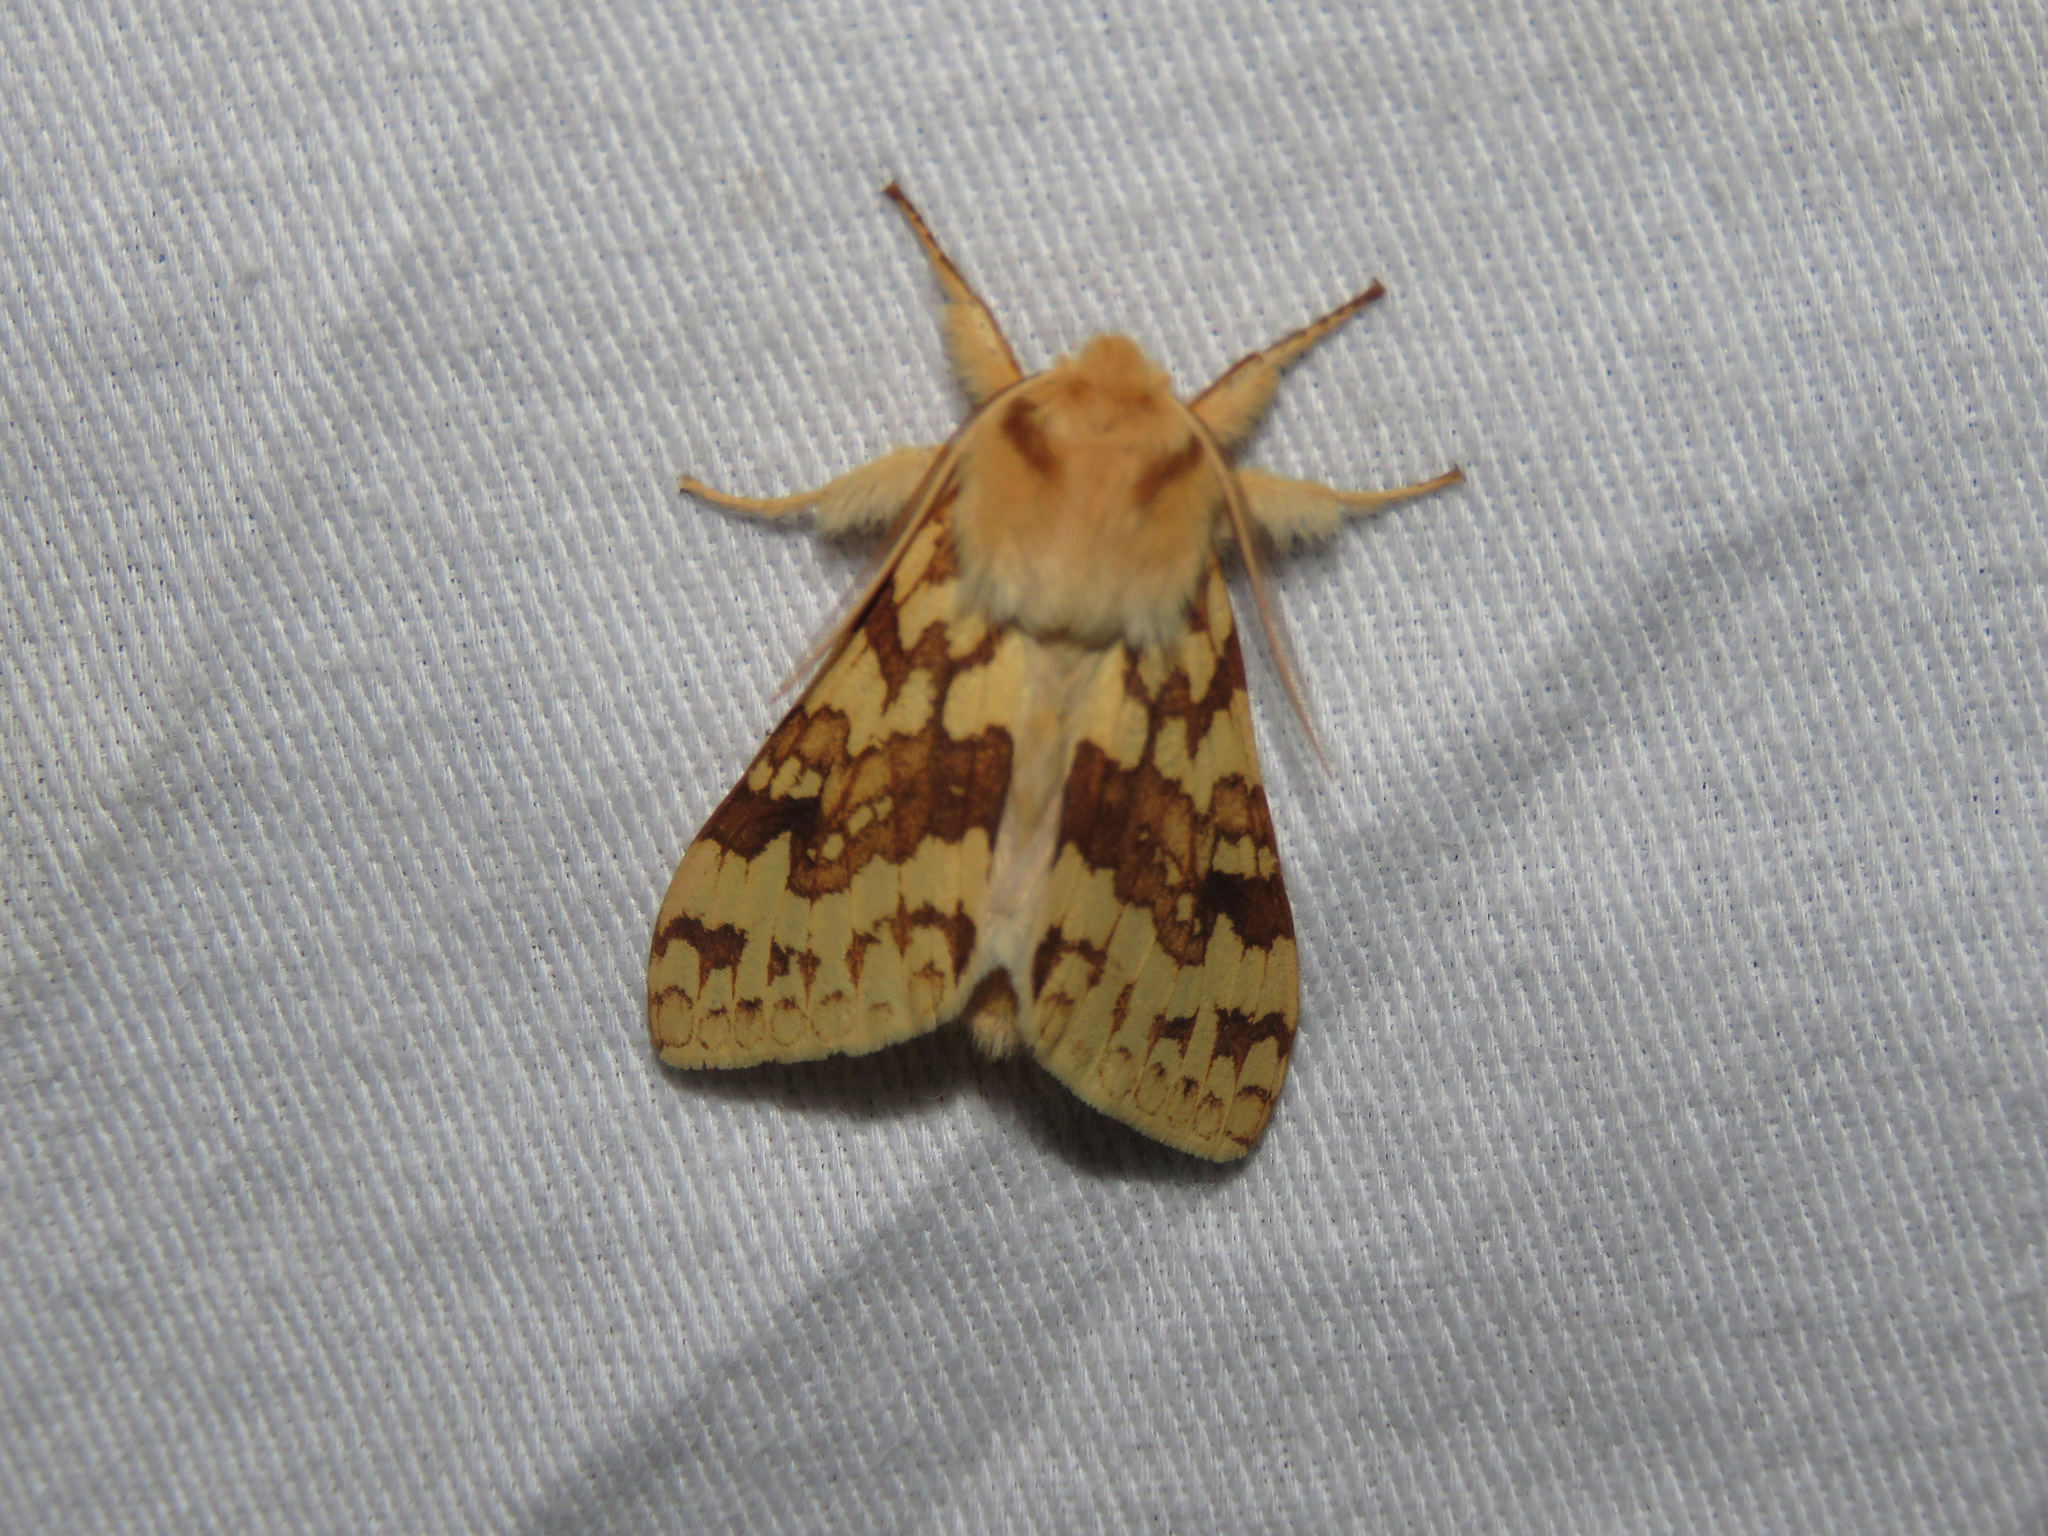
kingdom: Animalia
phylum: Arthropoda
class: Insecta
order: Lepidoptera
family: Erebidae
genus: Lophocampa
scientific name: Lophocampa maculata
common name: Spotted tussock moth
